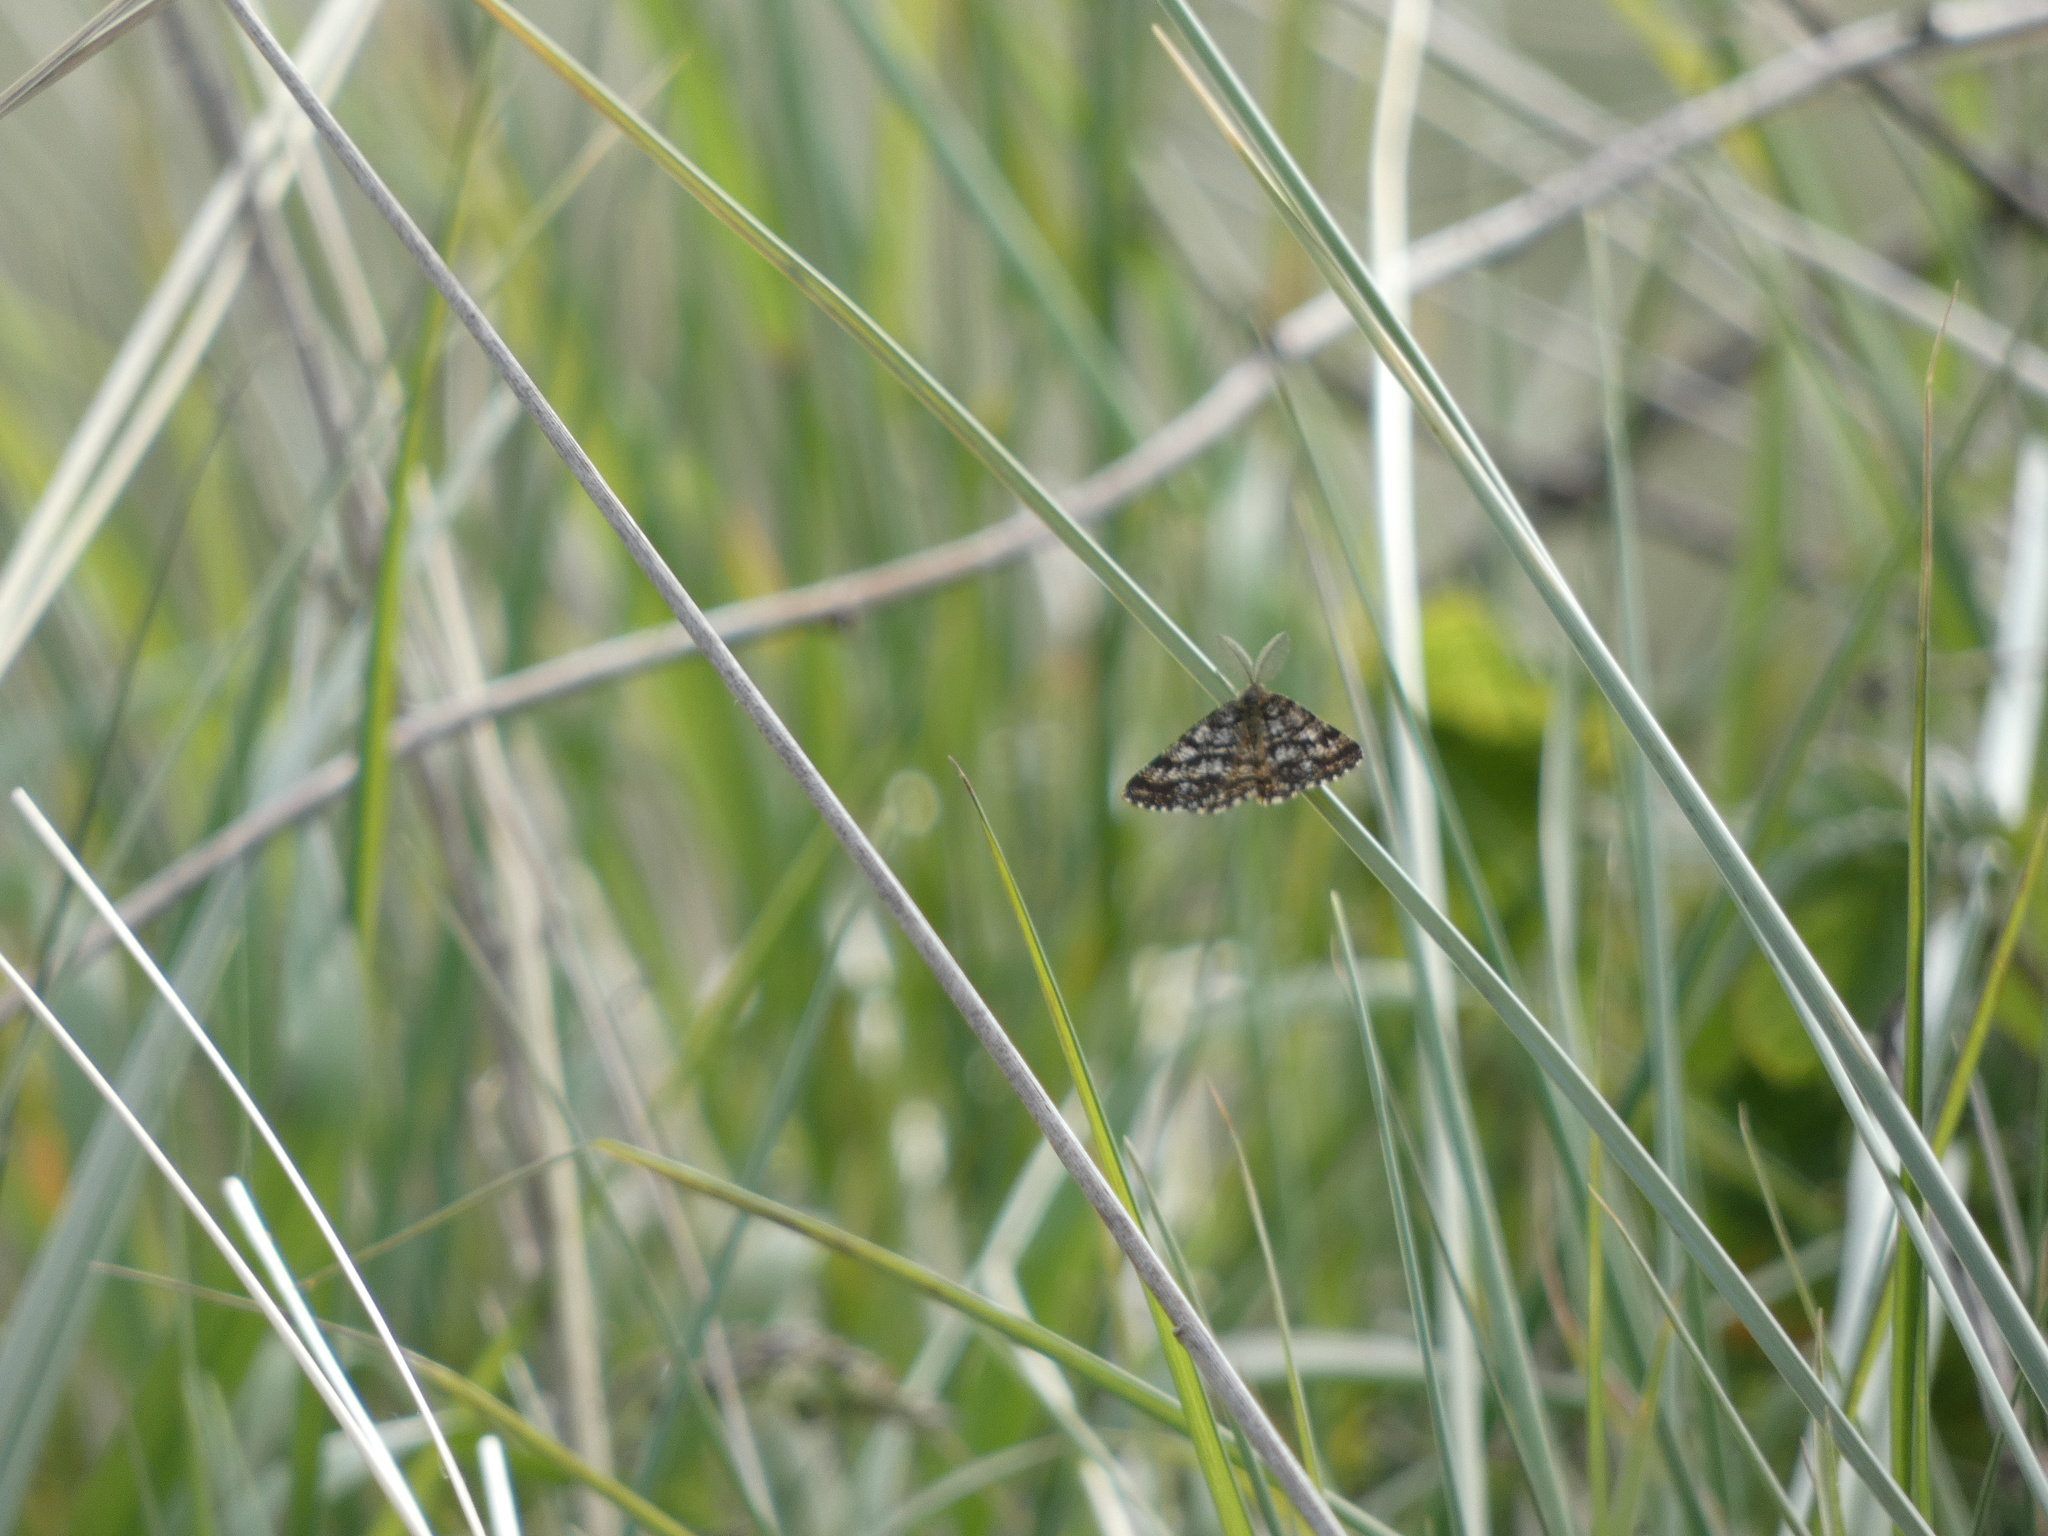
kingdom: Animalia
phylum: Arthropoda
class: Insecta
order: Lepidoptera
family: Geometridae
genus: Ematurga
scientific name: Ematurga atomaria
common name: Common heath
